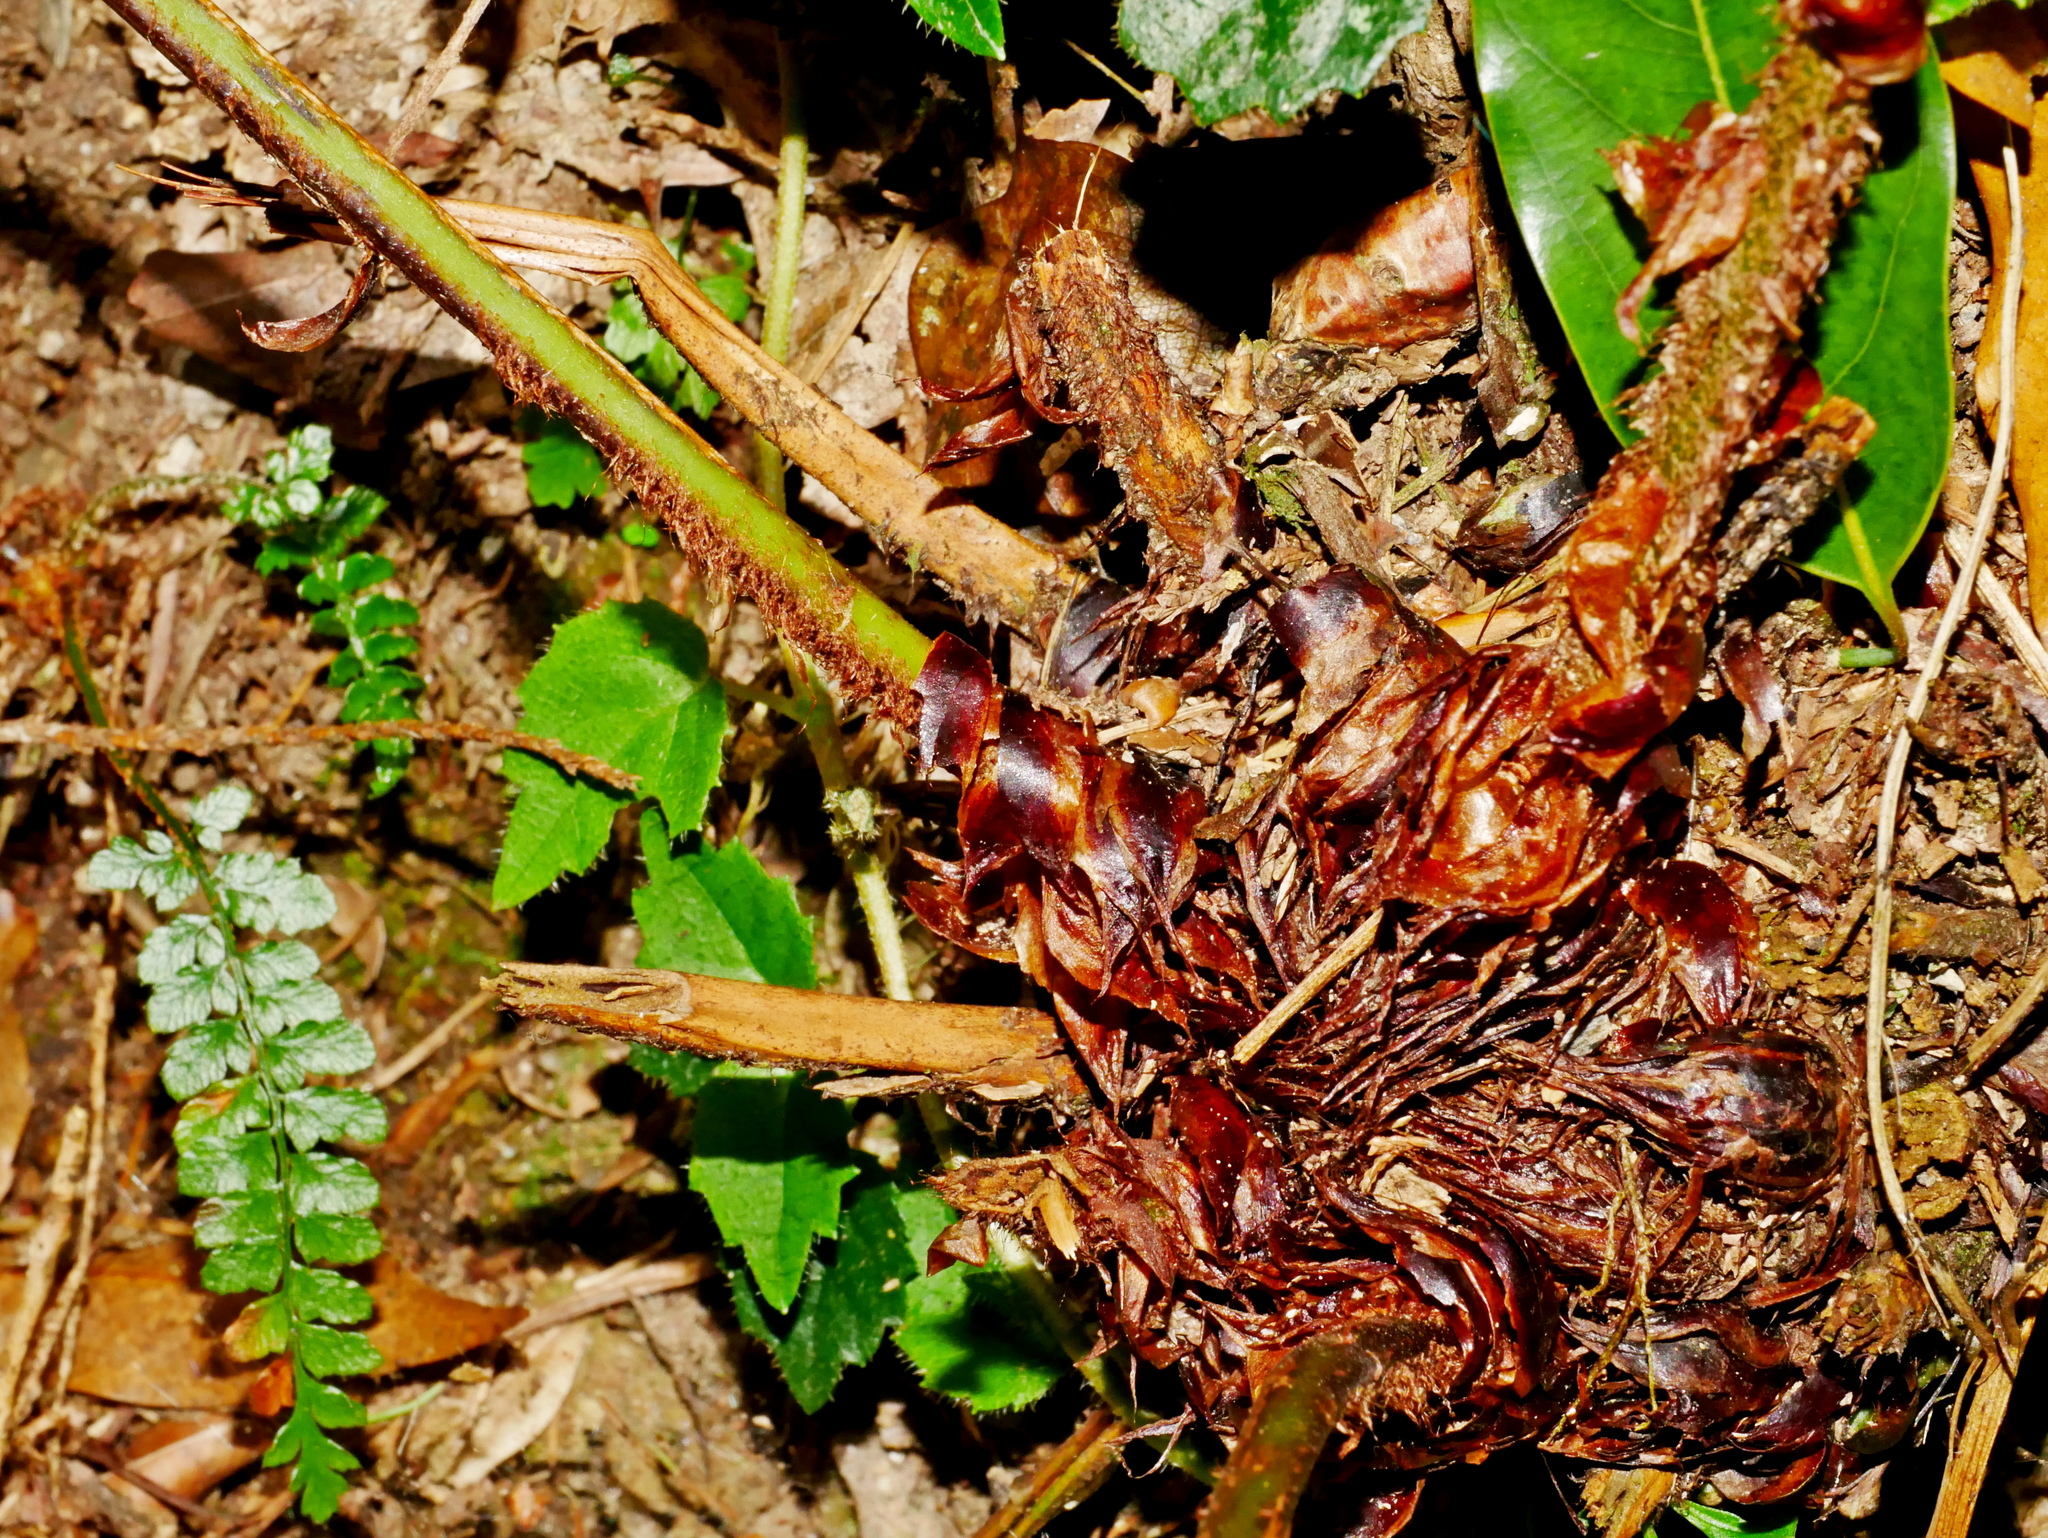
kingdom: Plantae
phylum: Tracheophyta
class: Polypodiopsida
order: Polypodiales
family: Dryopteridaceae
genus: Polystichum
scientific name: Polystichum mucronifolium
